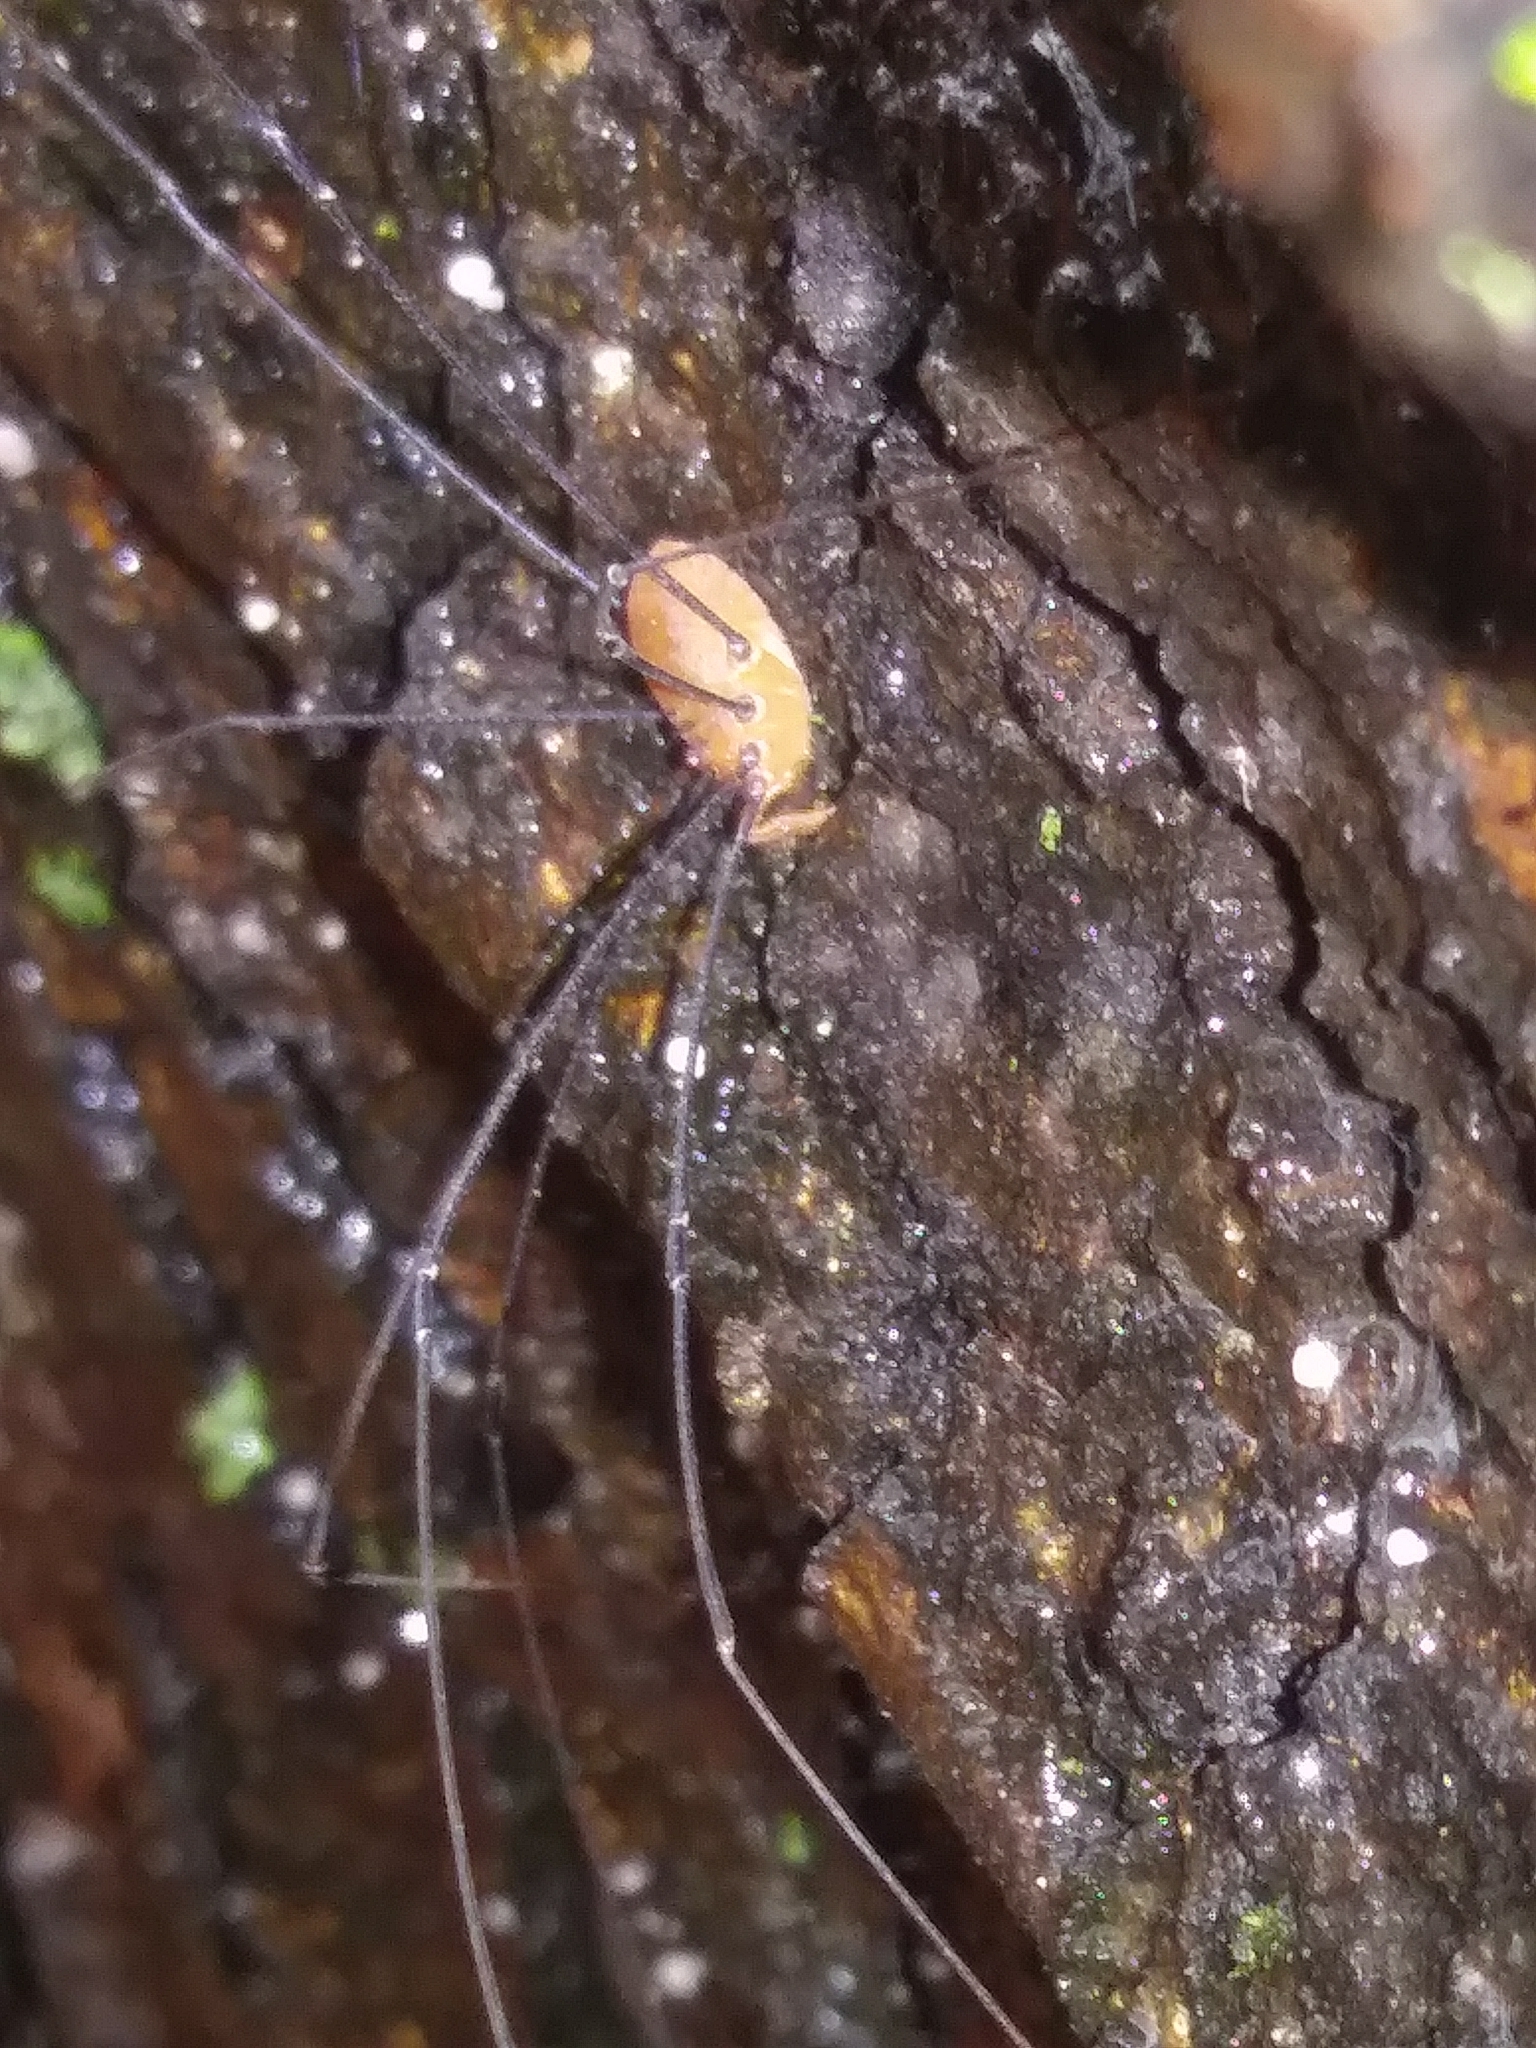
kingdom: Animalia
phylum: Arthropoda
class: Arachnida
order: Opiliones
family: Sclerosomatidae
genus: Leiobunum
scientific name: Leiobunum vittatum
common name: Eastern harvestman
